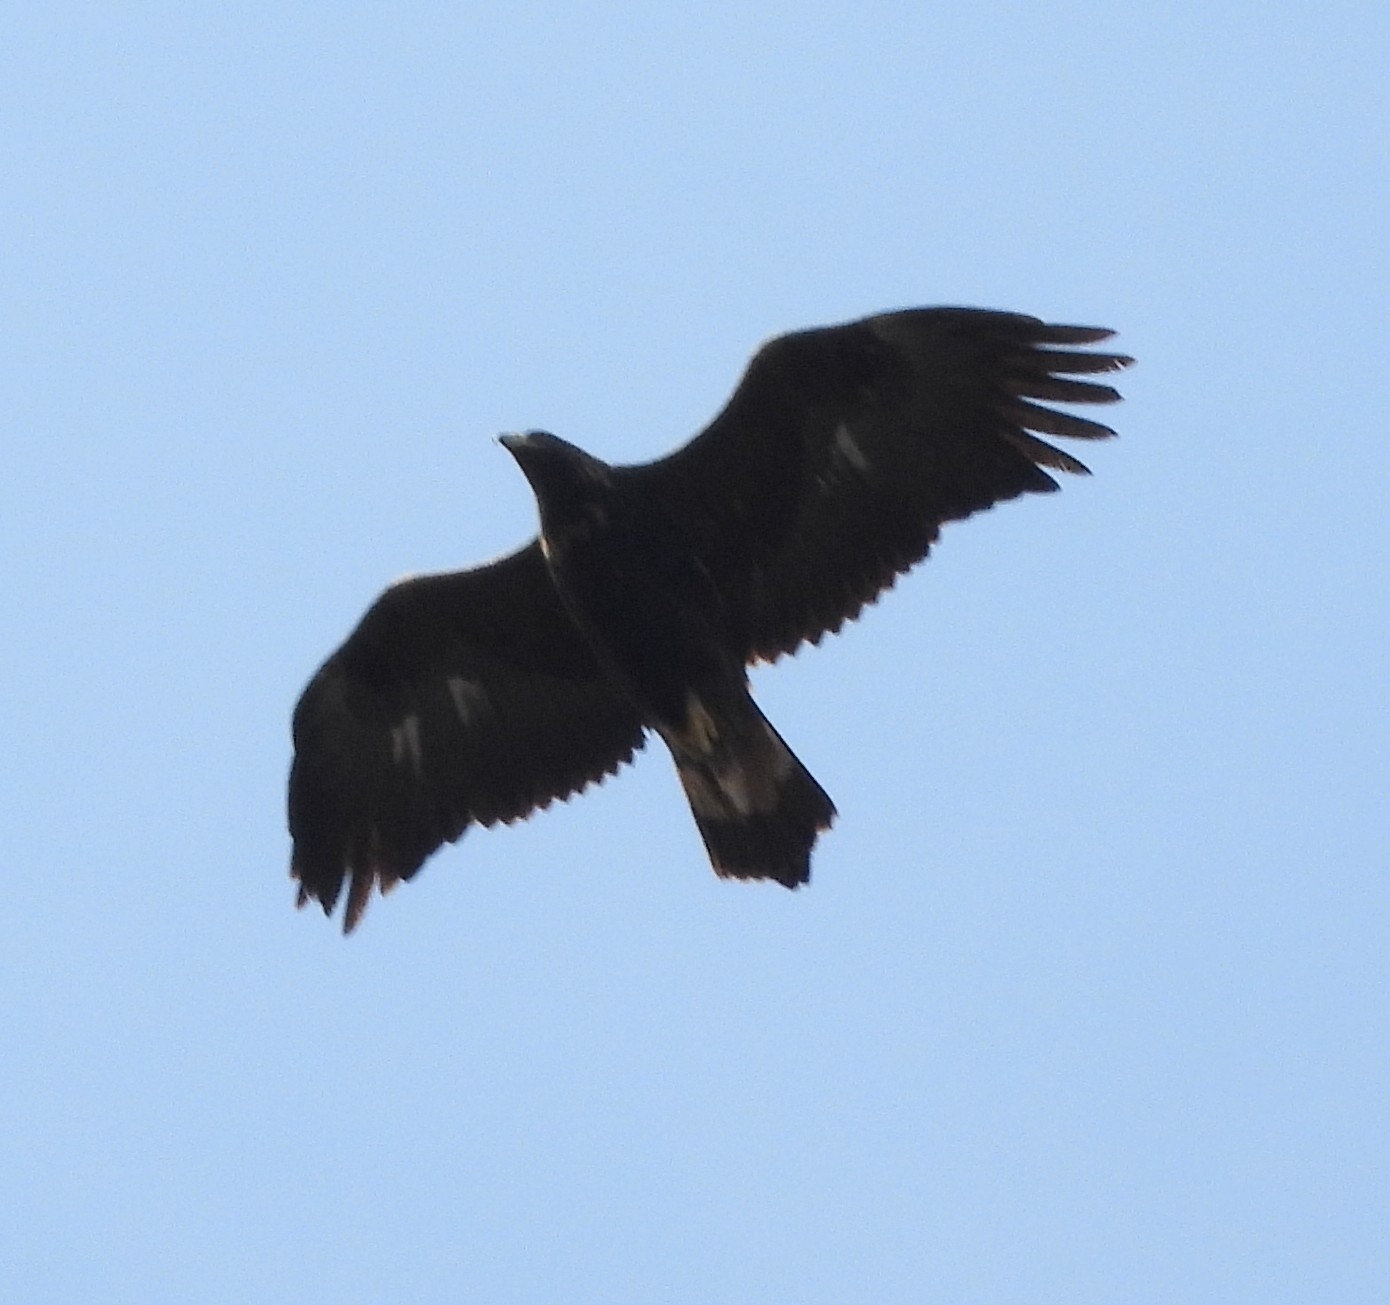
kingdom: Animalia
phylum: Chordata
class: Aves
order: Accipitriformes
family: Accipitridae
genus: Aquila
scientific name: Aquila chrysaetos
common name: Golden eagle
